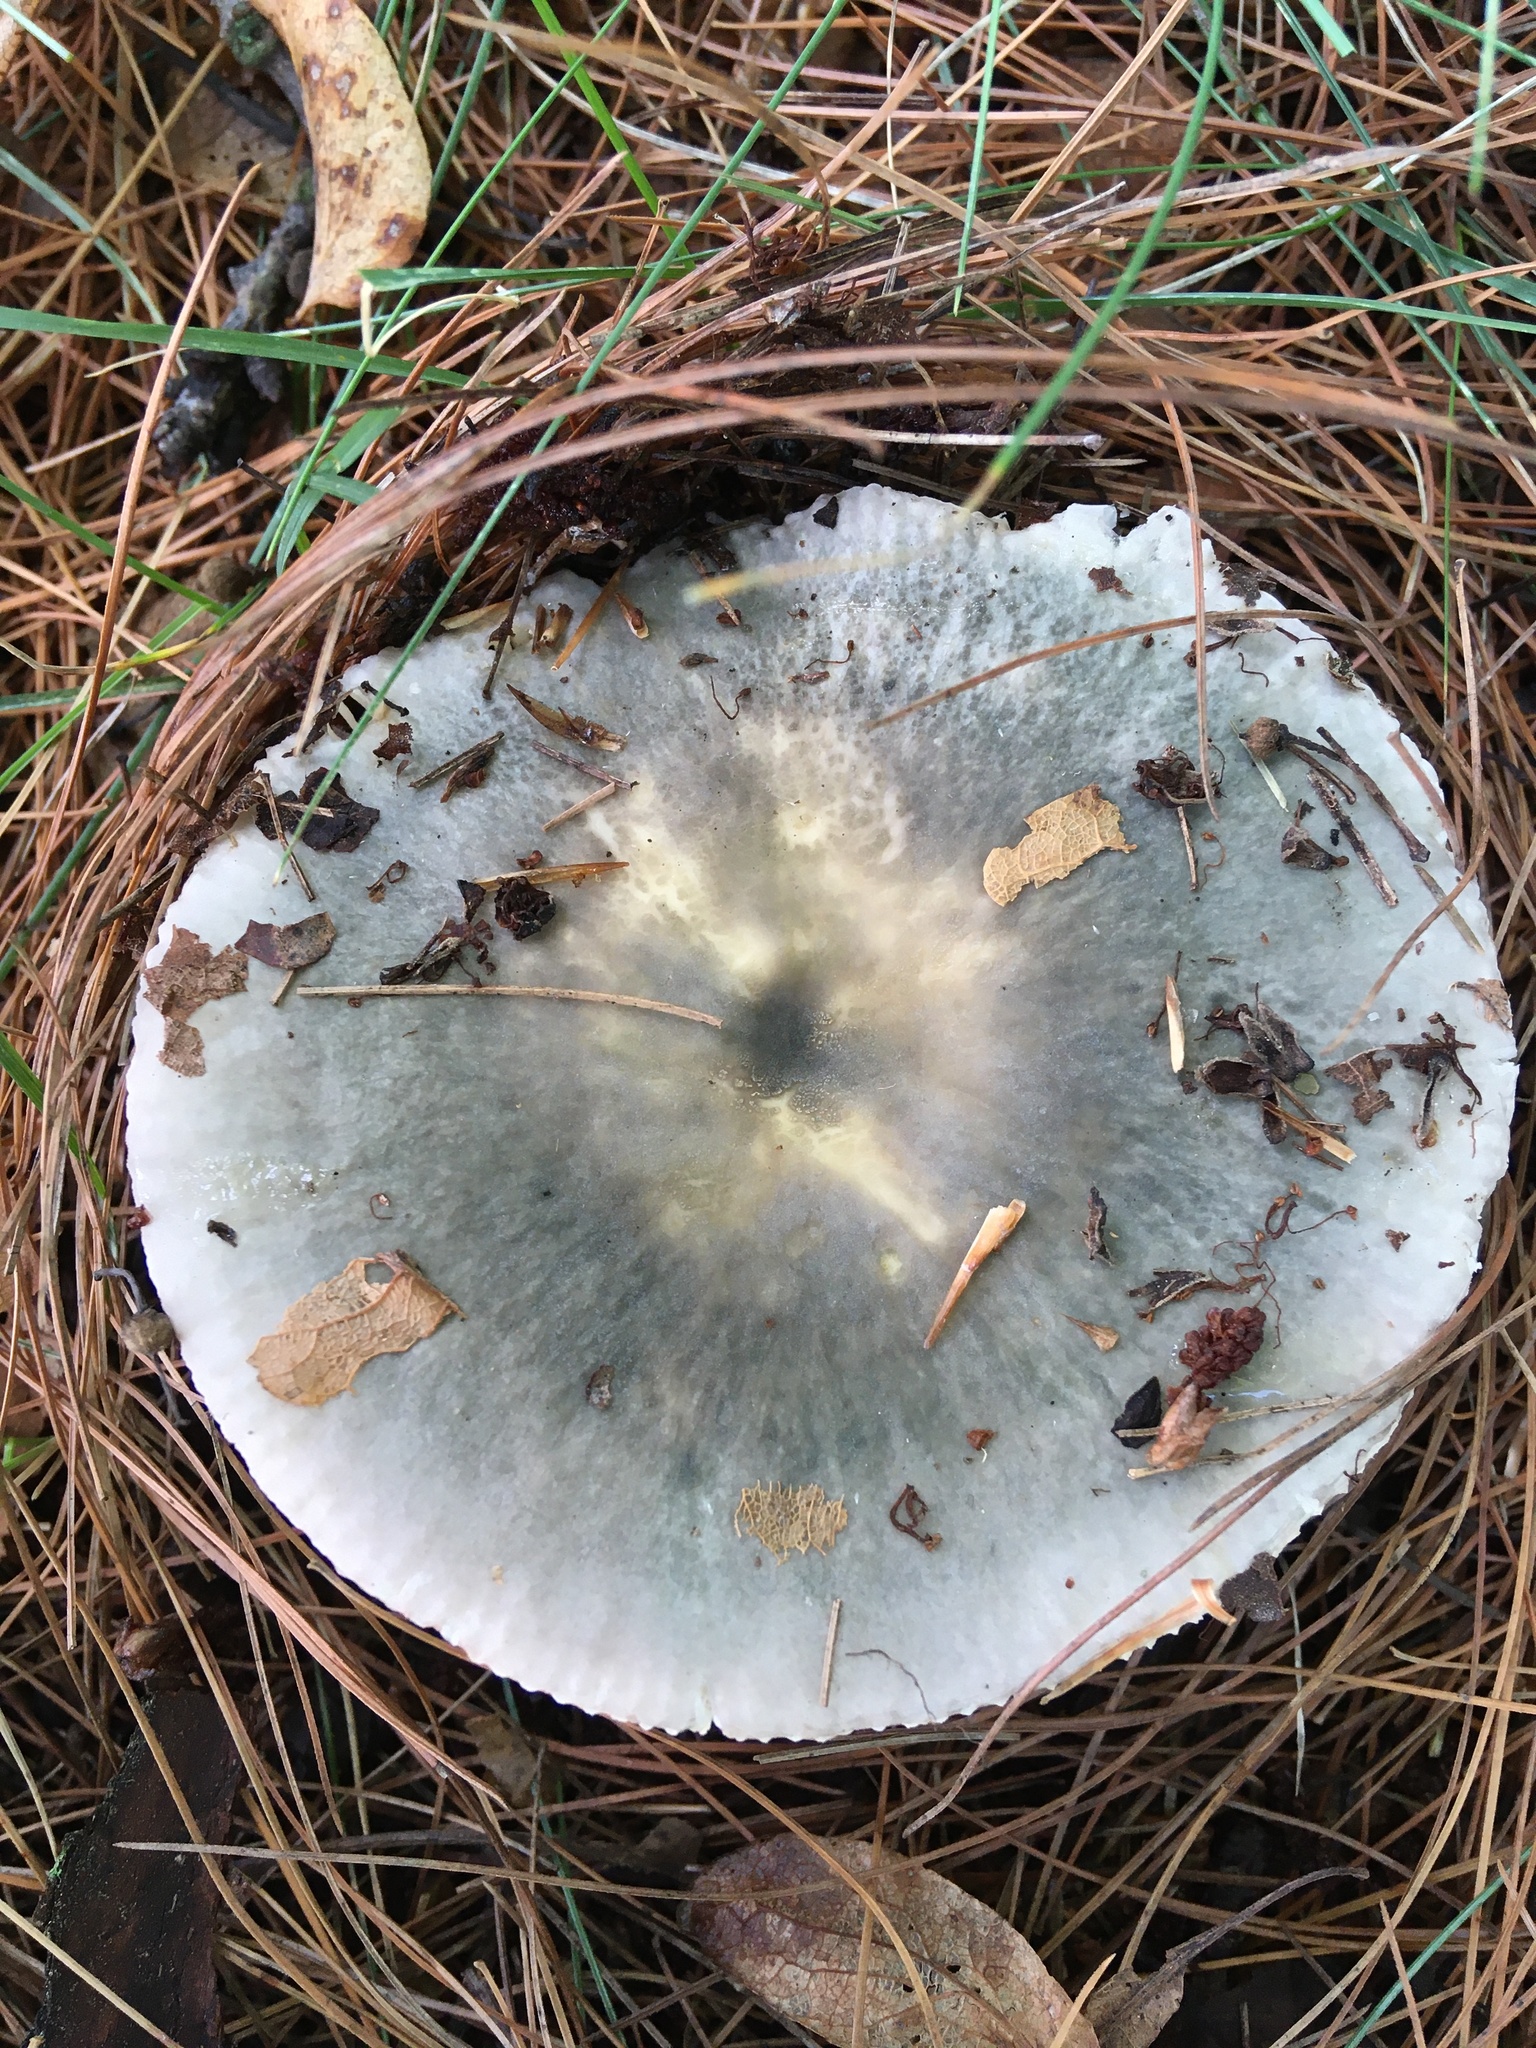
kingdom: Fungi
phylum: Basidiomycota
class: Agaricomycetes
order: Russulales
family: Russulaceae
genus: Russula
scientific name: Russula crustosa
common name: Green quilt russula
